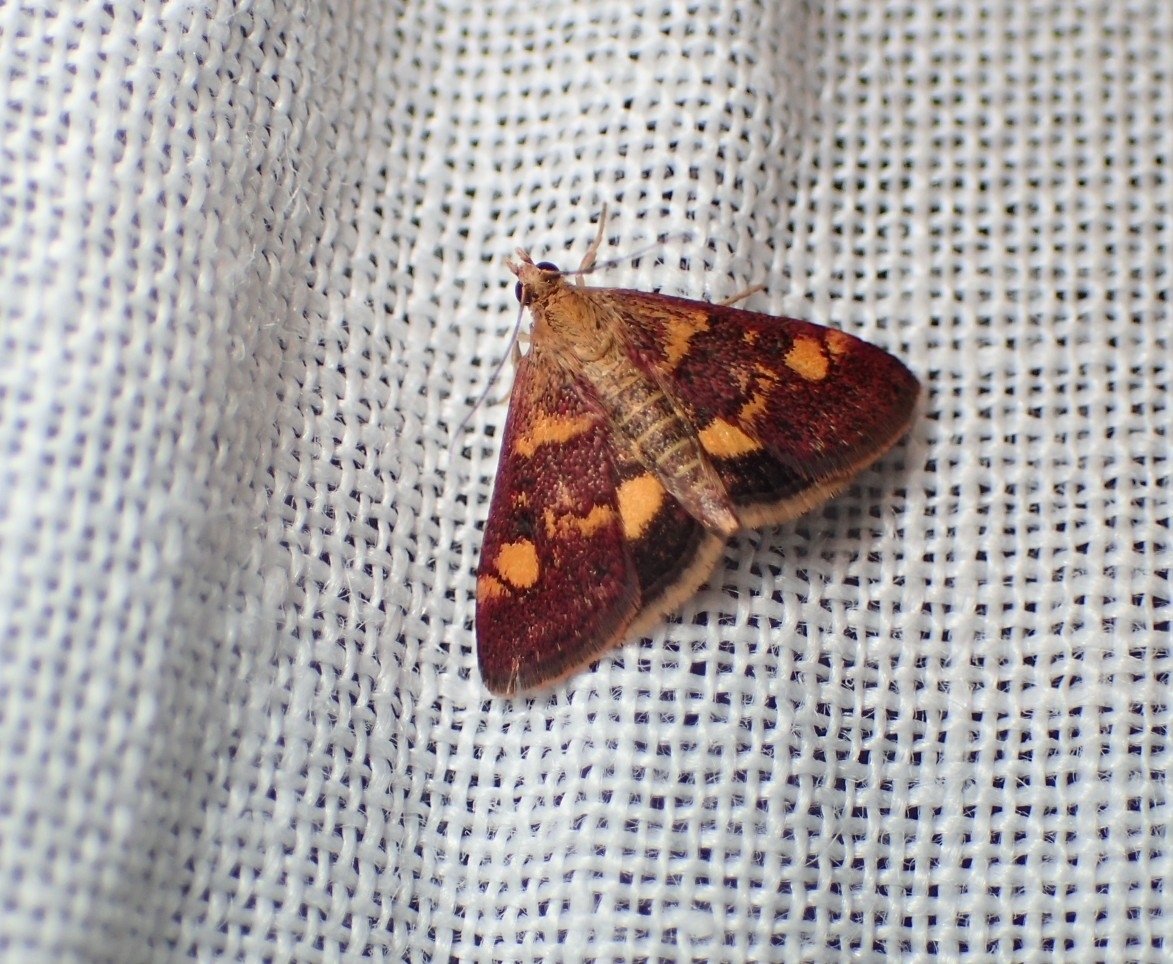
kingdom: Animalia
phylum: Arthropoda
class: Insecta
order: Lepidoptera
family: Crambidae
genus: Pyrausta
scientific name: Pyrausta aurata
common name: Small purple & gold
